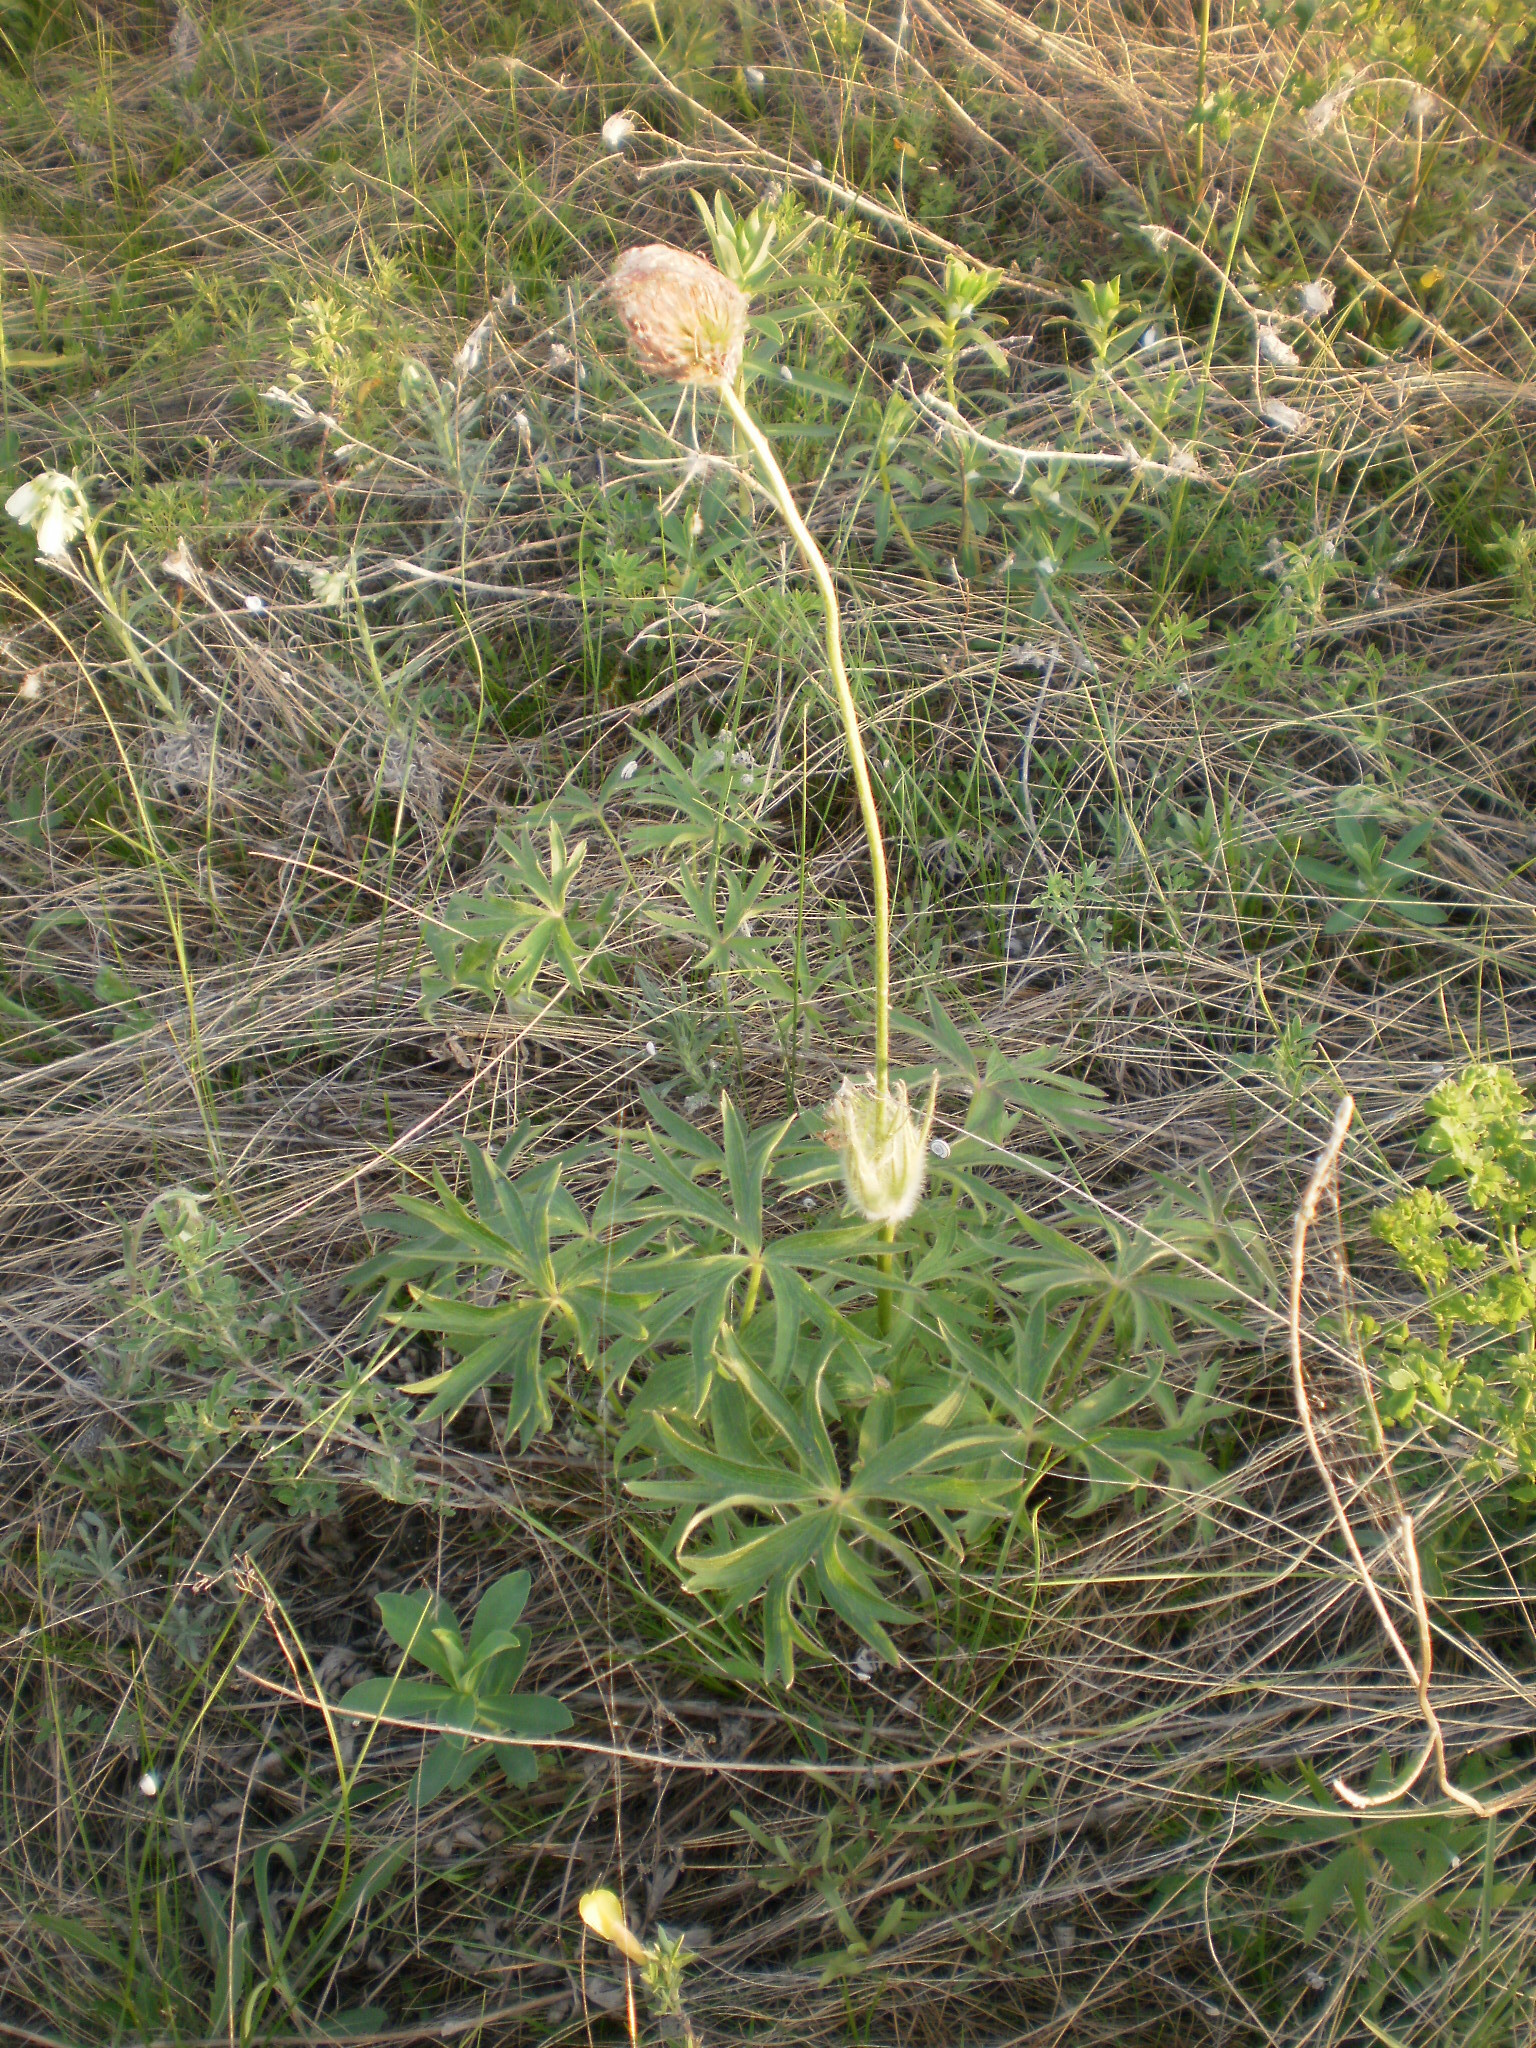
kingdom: Plantae
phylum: Tracheophyta
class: Magnoliopsida
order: Ranunculales
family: Ranunculaceae
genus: Pulsatilla
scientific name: Pulsatilla patens
